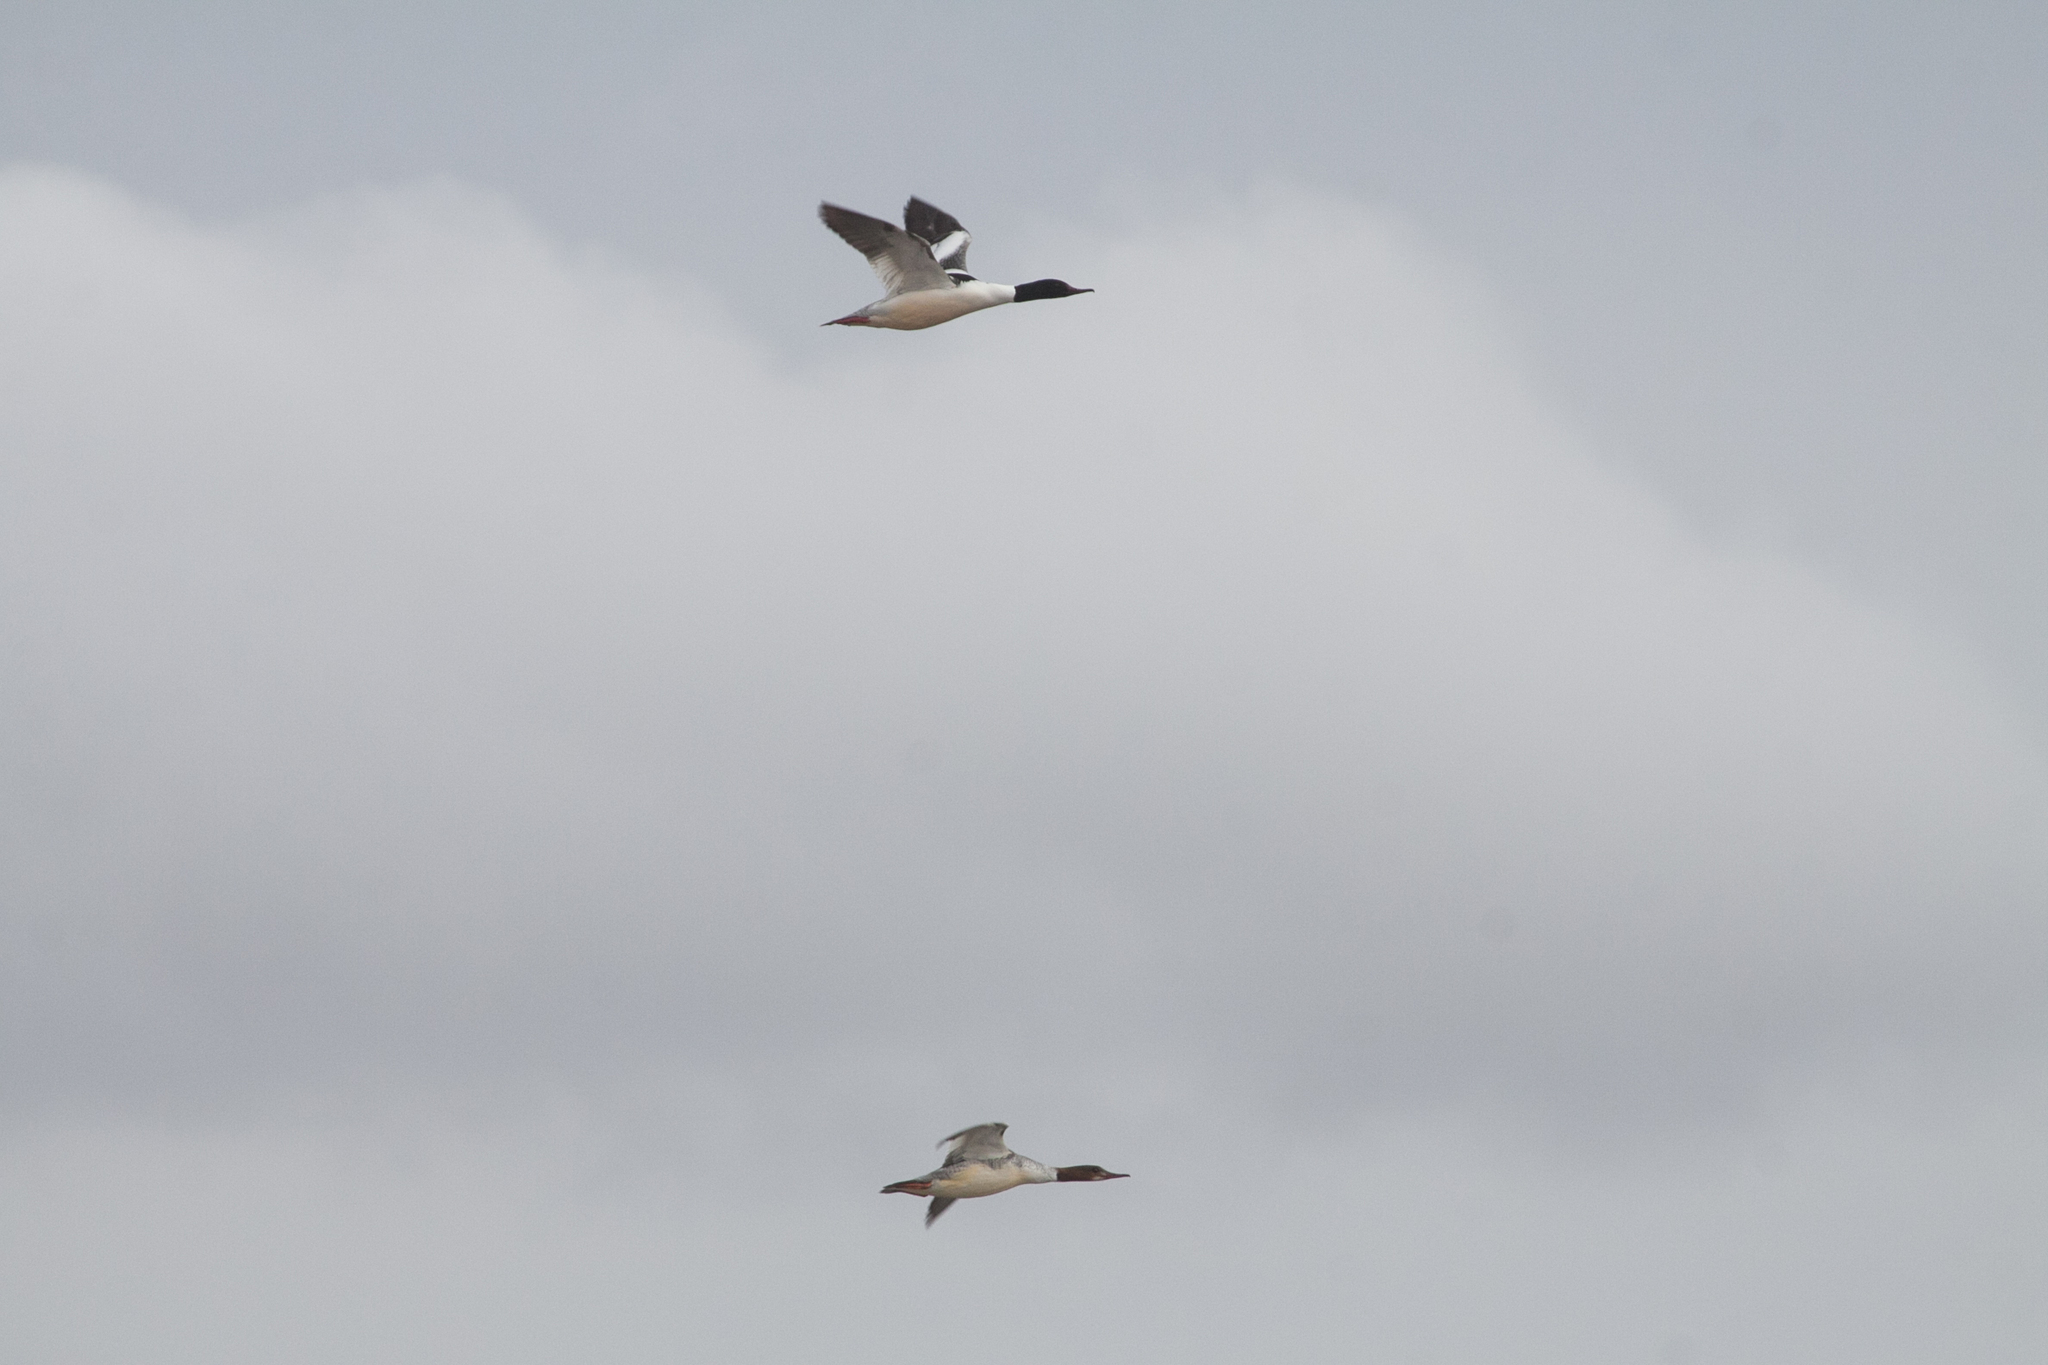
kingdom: Animalia
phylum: Chordata
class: Aves
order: Anseriformes
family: Anatidae
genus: Mergus
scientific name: Mergus merganser
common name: Common merganser
